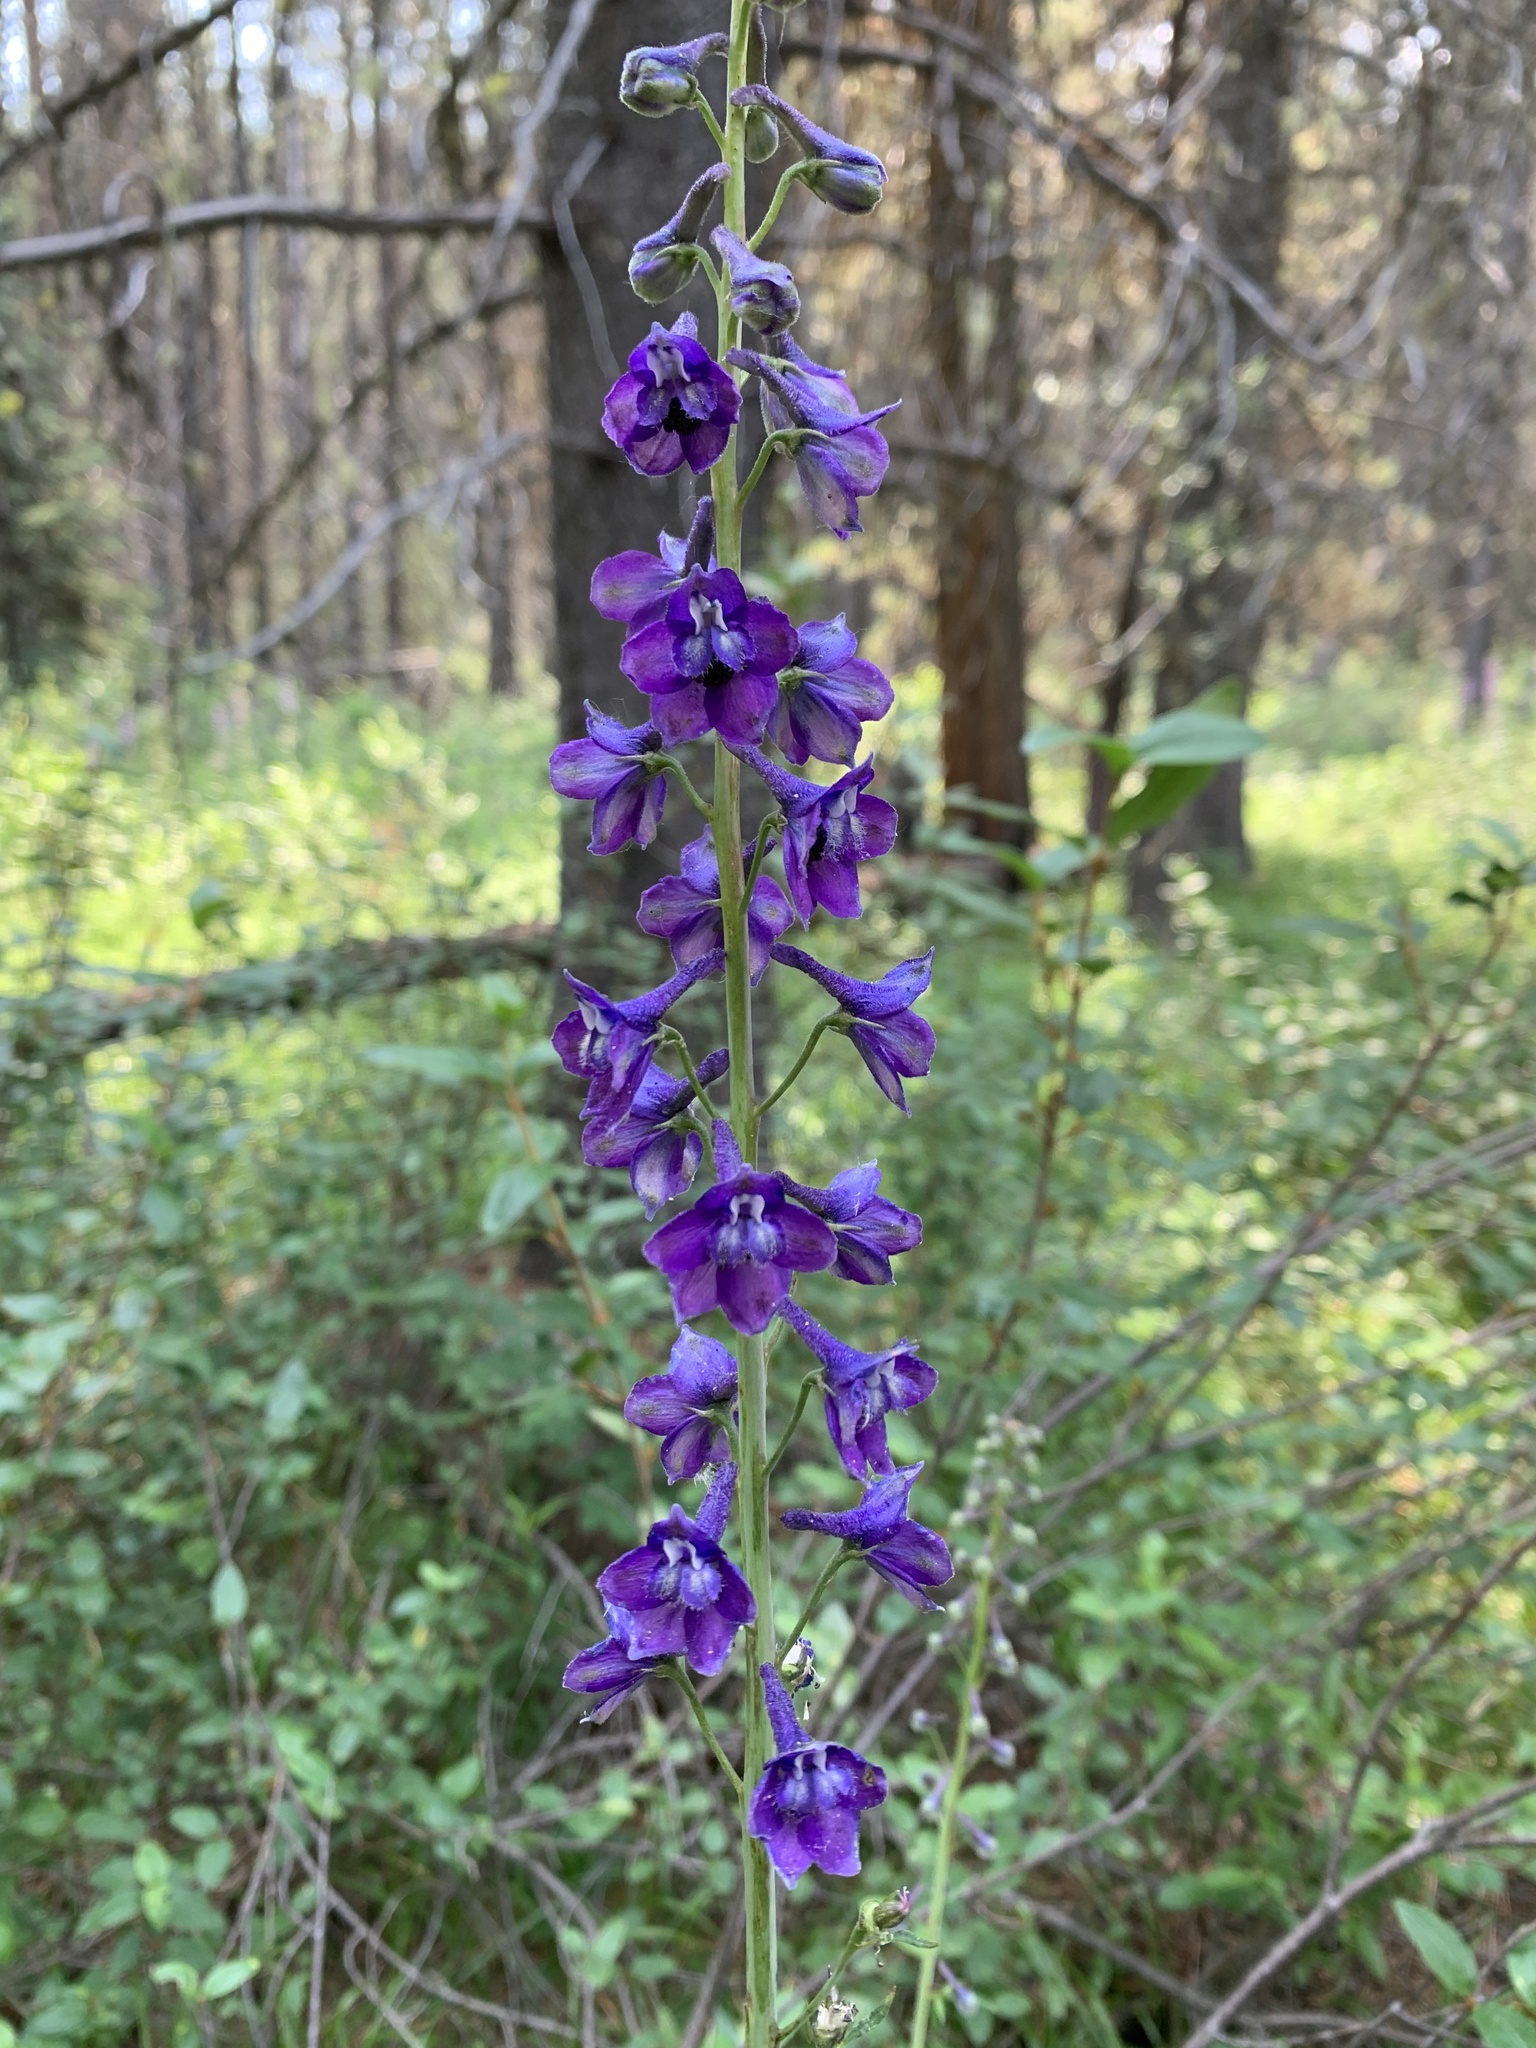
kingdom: Plantae
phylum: Tracheophyta
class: Magnoliopsida
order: Ranunculales
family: Ranunculaceae
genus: Delphinium
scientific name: Delphinium glaucum
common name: Brown's larkspur
